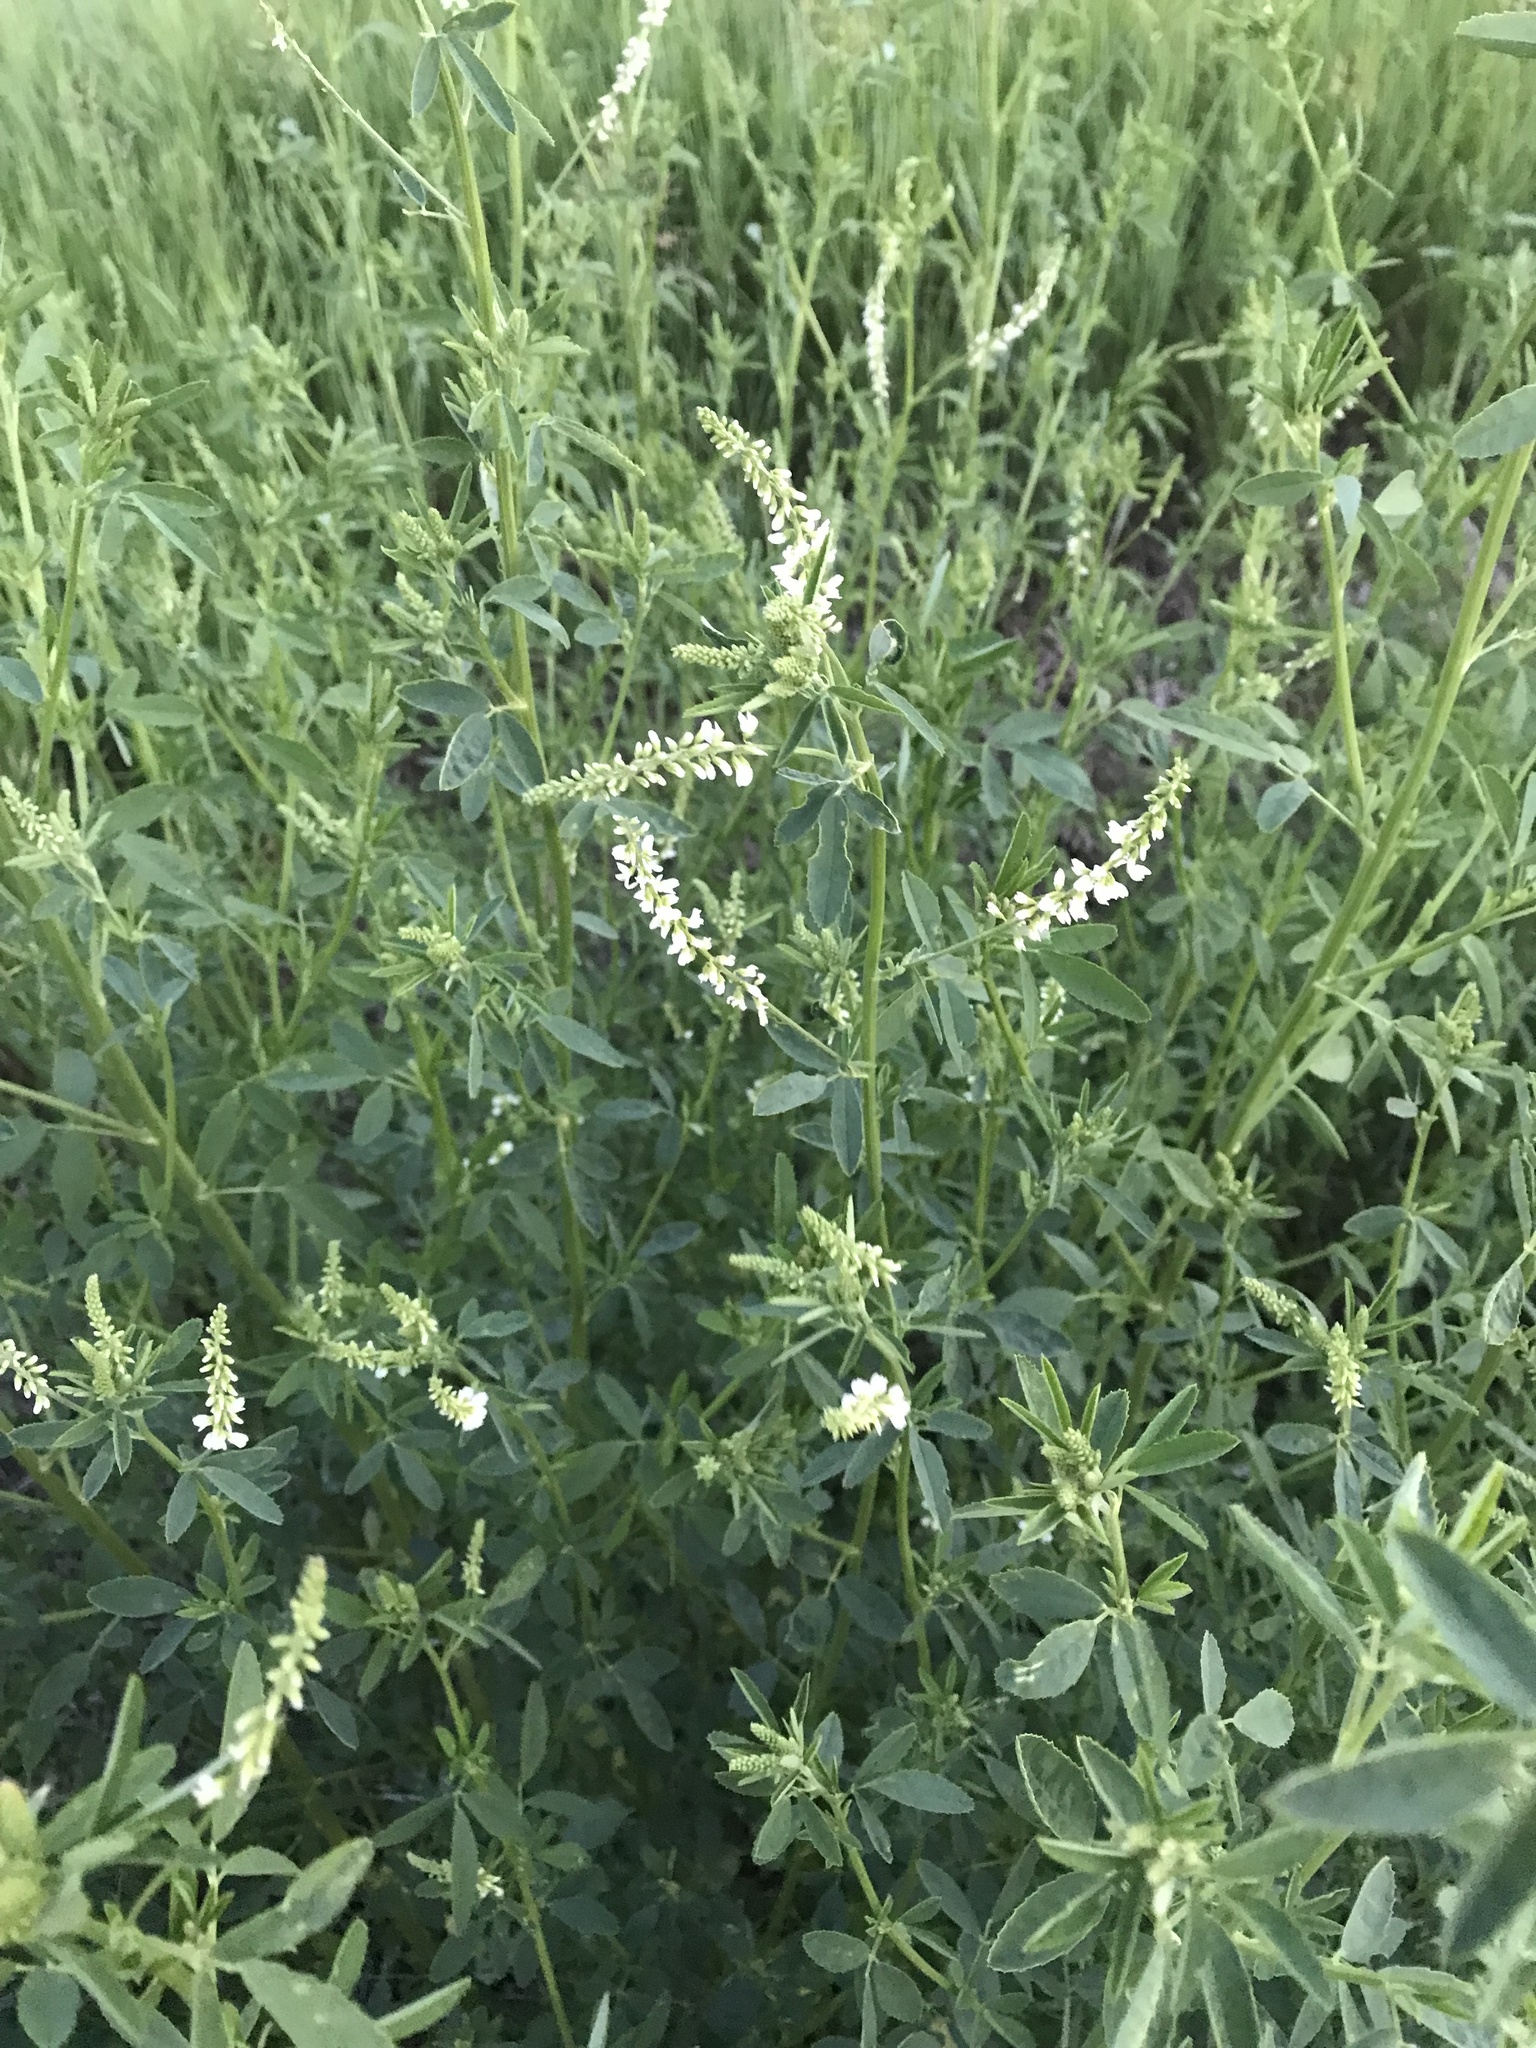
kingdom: Plantae
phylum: Tracheophyta
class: Magnoliopsida
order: Fabales
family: Fabaceae
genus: Melilotus
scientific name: Melilotus albus
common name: White melilot
